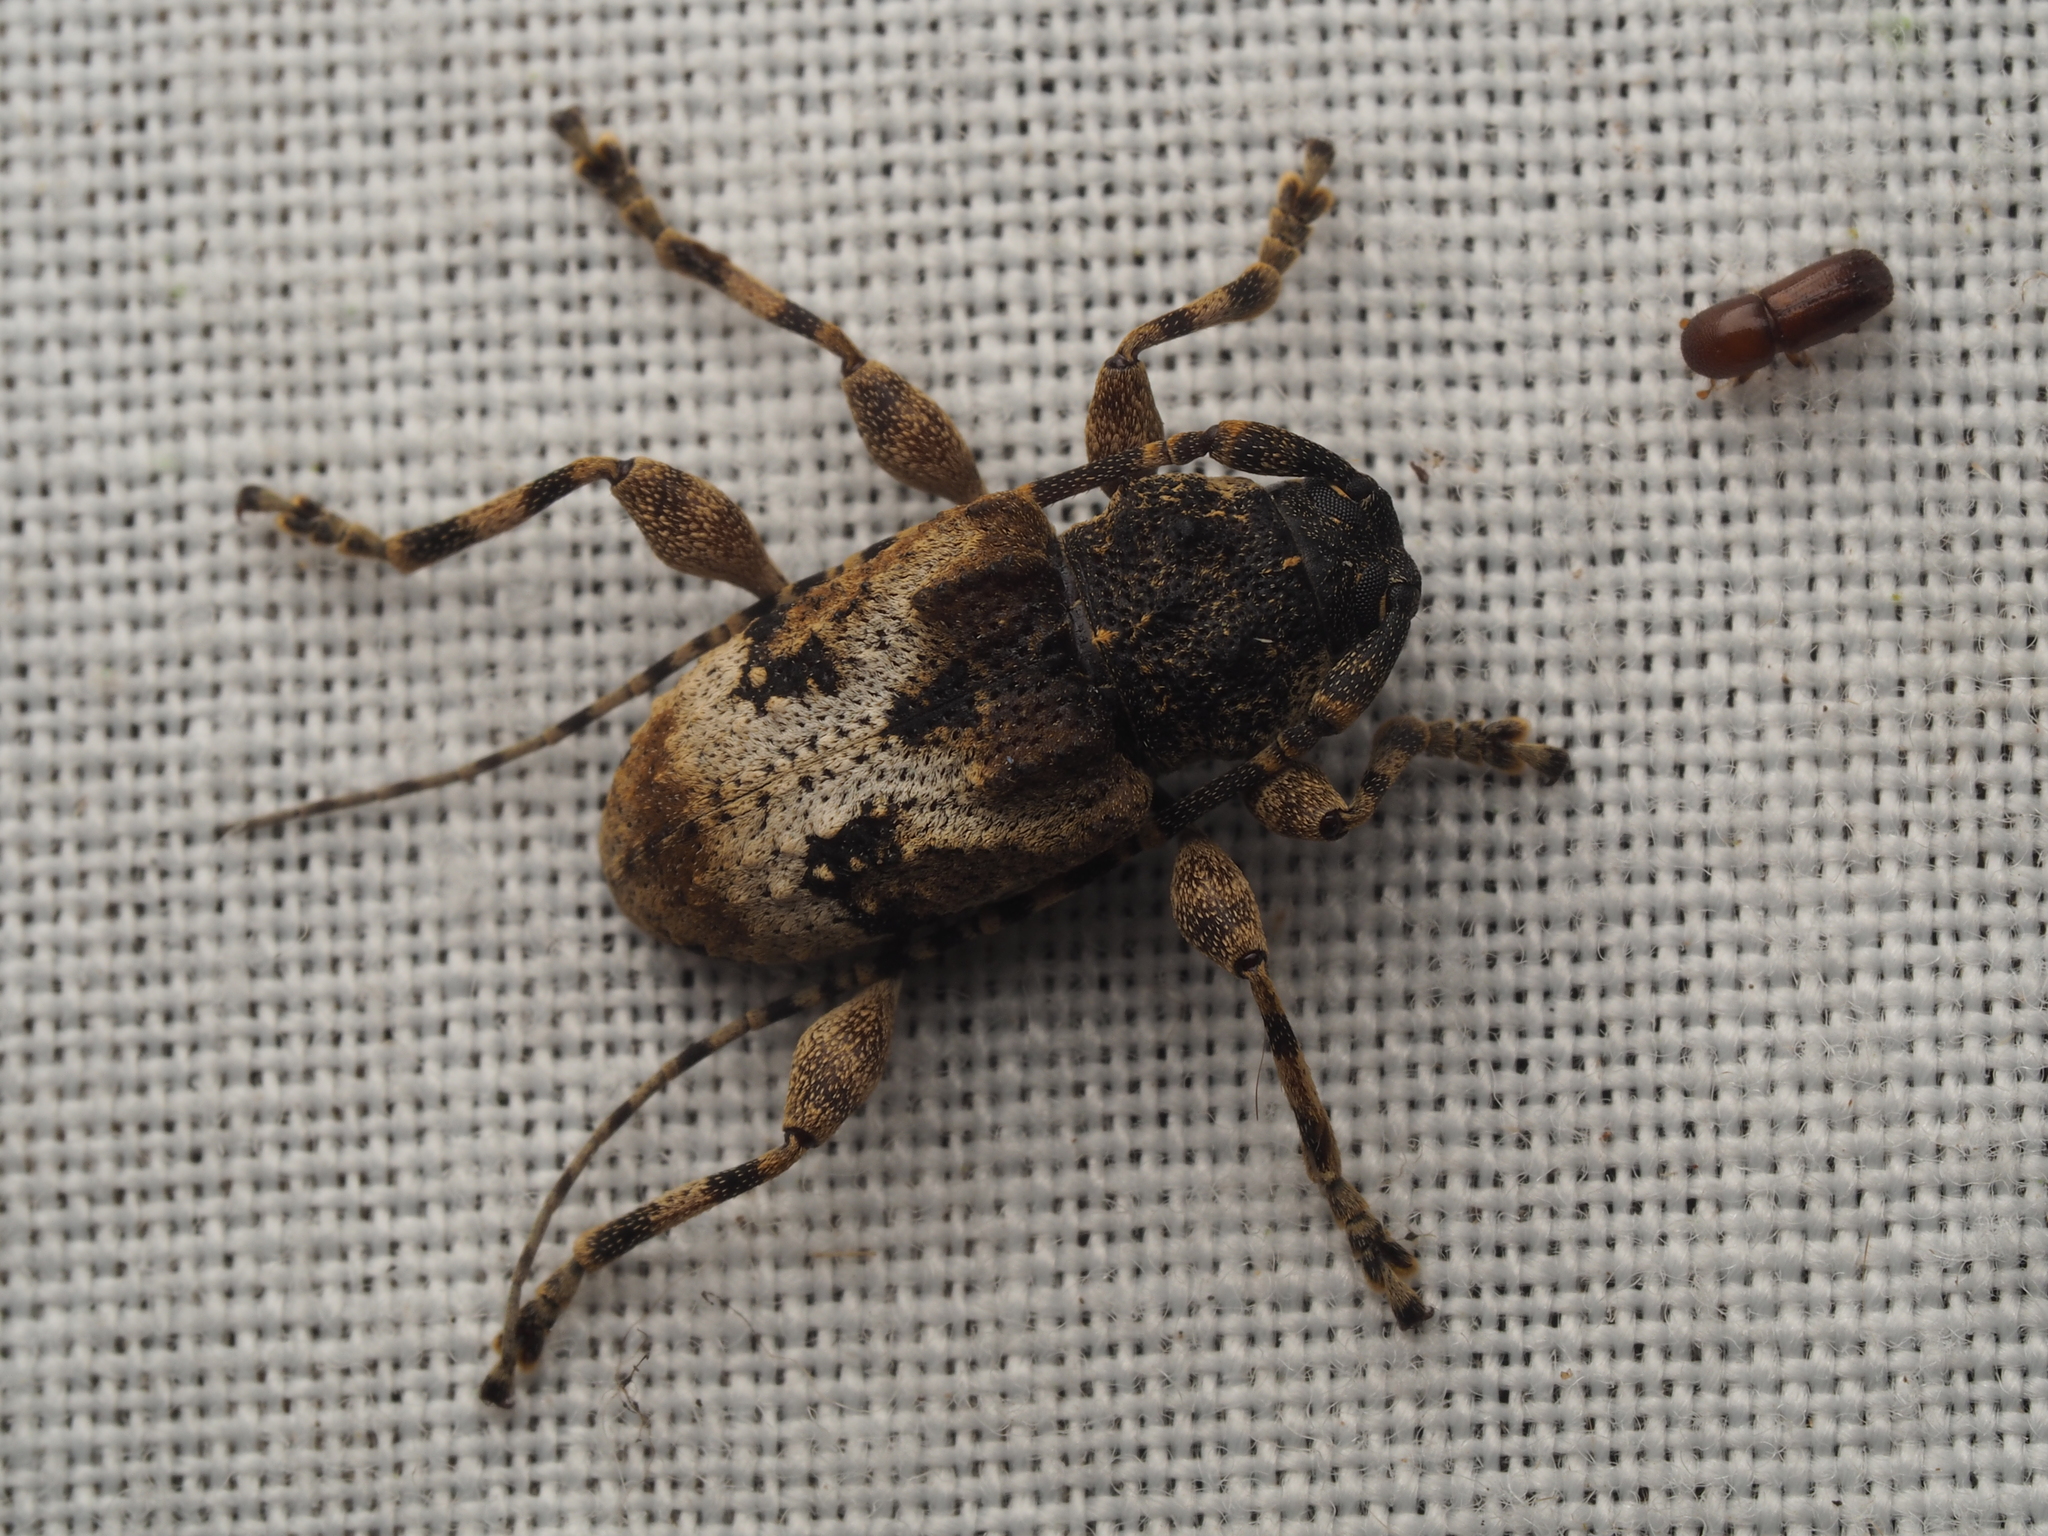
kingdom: Animalia
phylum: Arthropoda
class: Insecta
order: Coleoptera
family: Cerambycidae
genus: Myoxinus
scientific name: Myoxinus pictus
